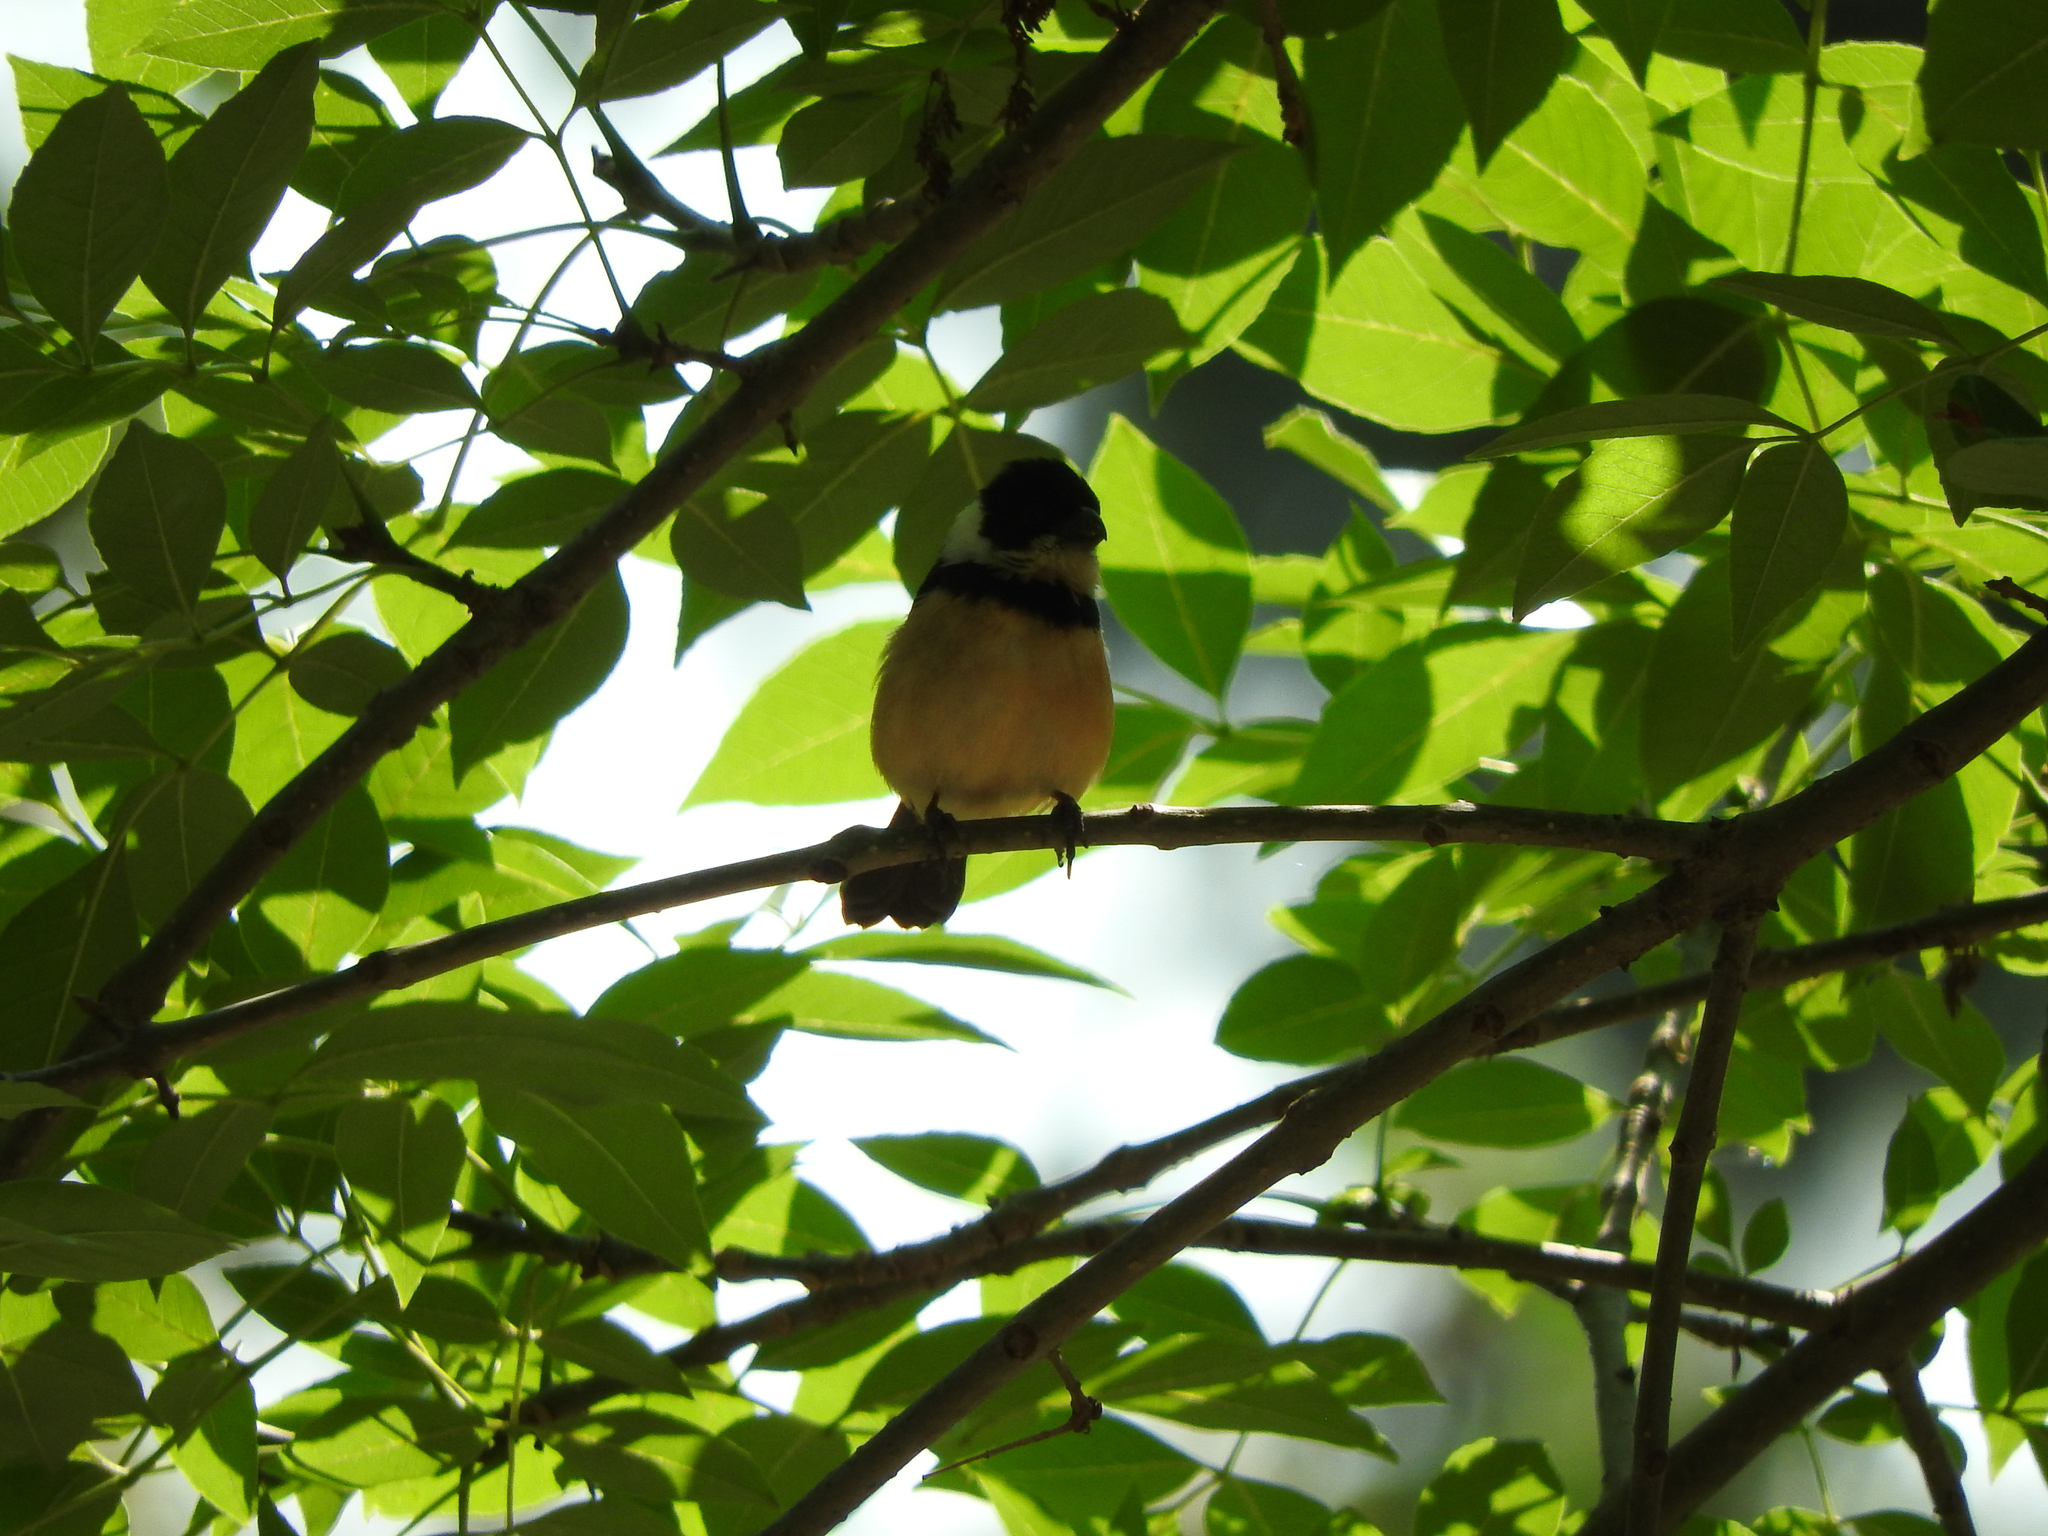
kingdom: Animalia
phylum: Chordata
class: Aves
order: Passeriformes
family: Thraupidae
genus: Sporophila
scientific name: Sporophila torqueola
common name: White-collared seedeater
